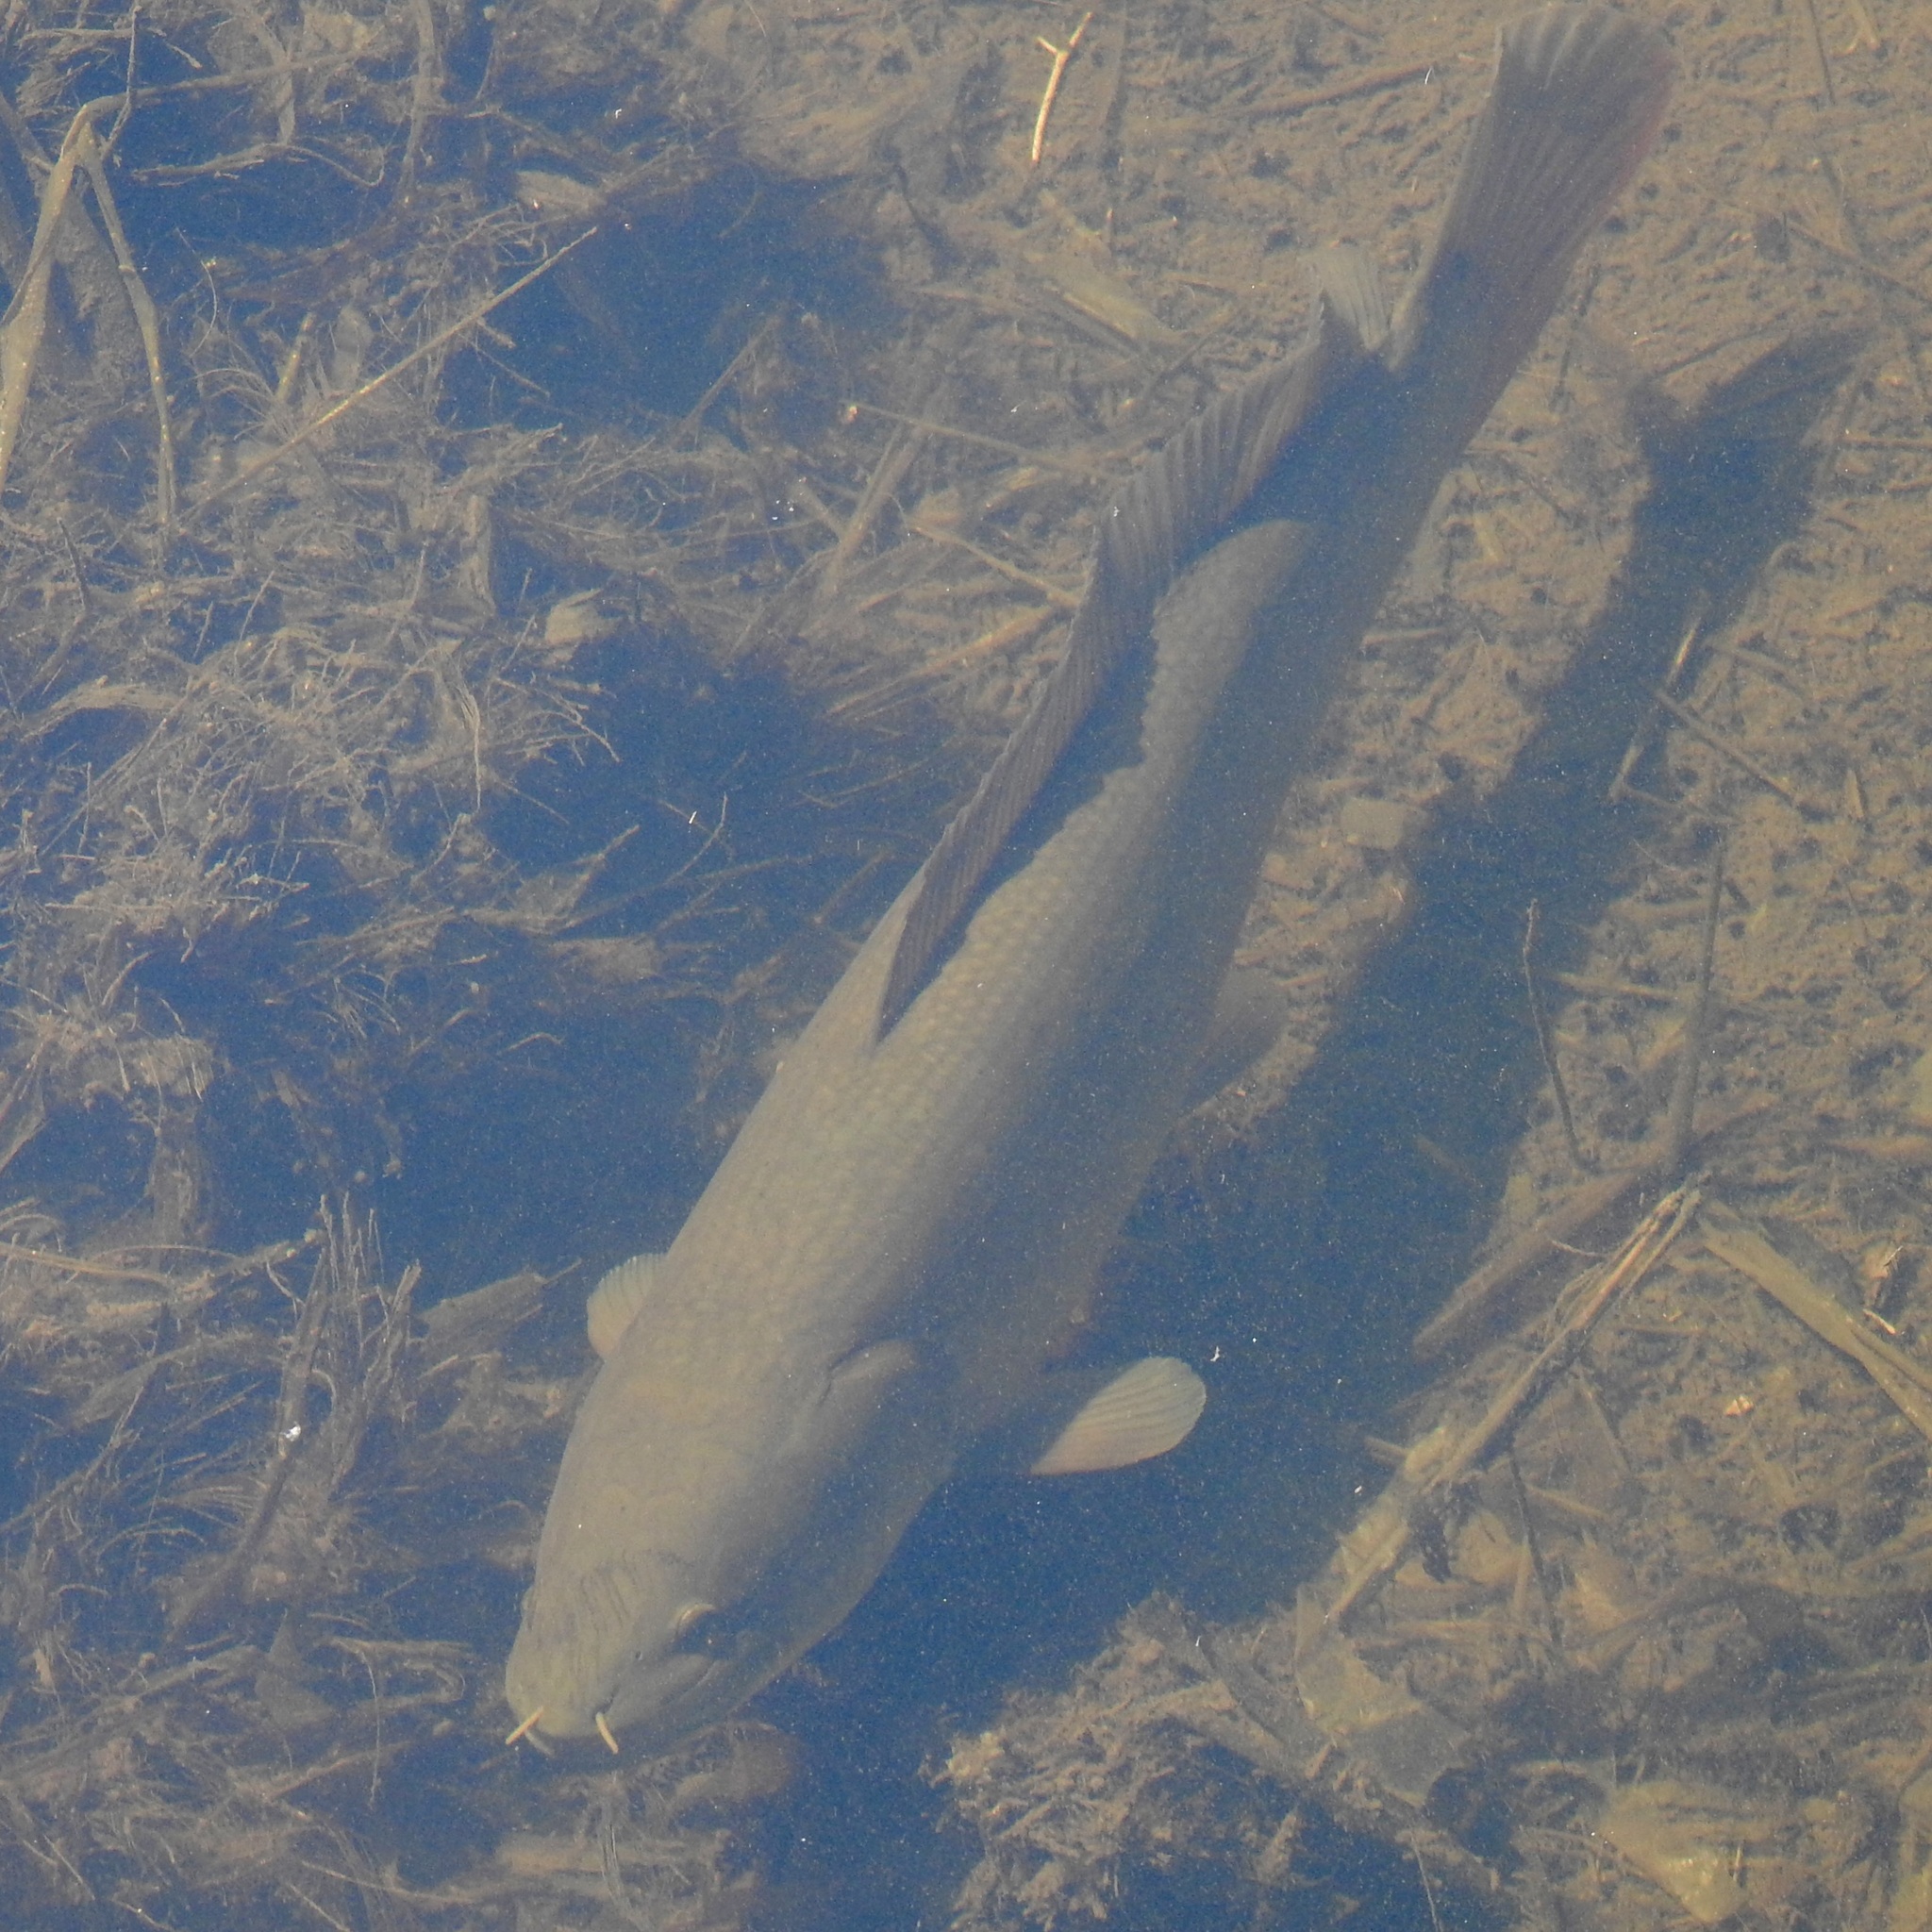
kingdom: Animalia
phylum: Chordata
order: Amiiformes
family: Amiidae
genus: Amia
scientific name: Amia calva
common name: Bowfin
